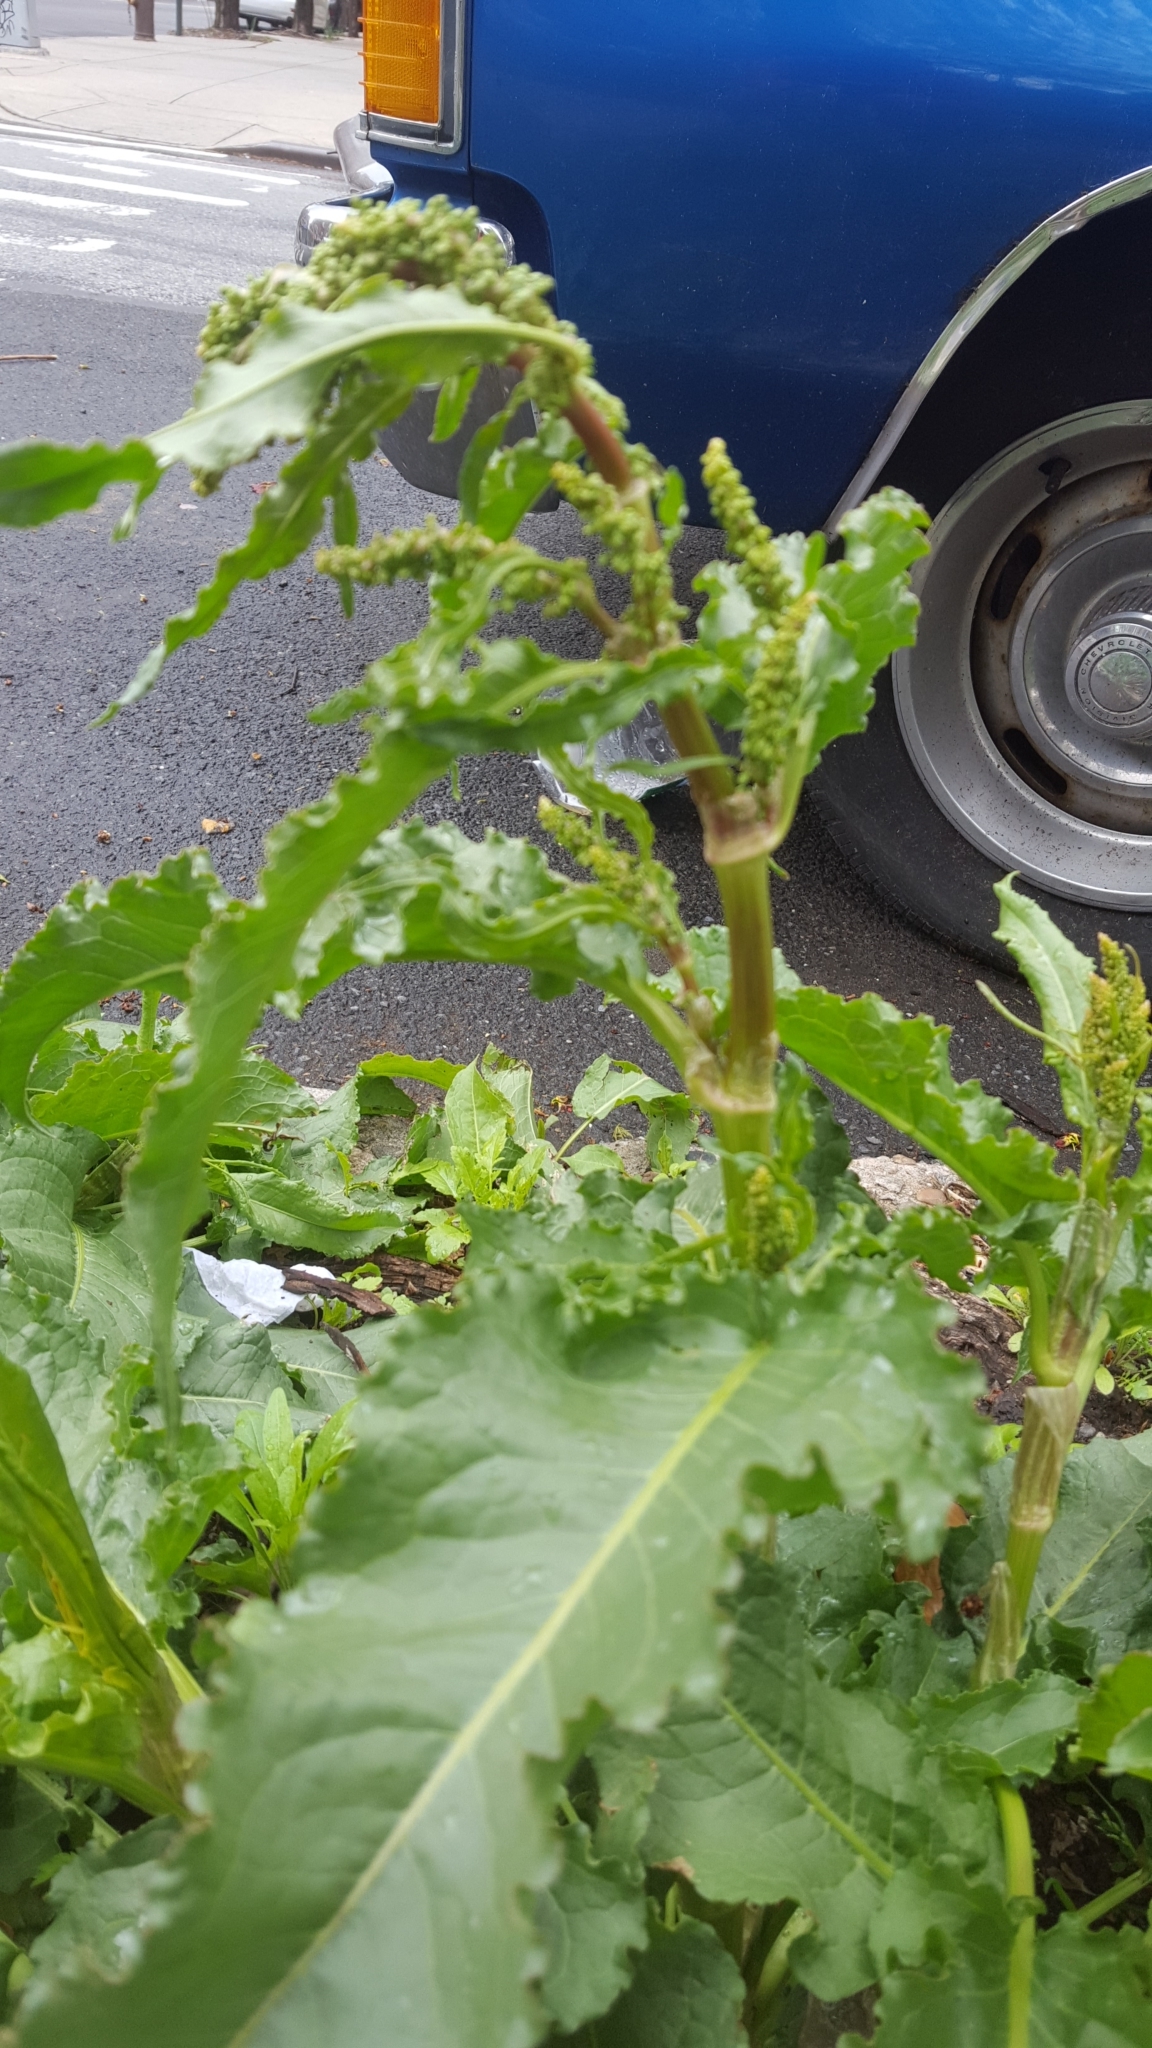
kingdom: Plantae
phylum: Tracheophyta
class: Magnoliopsida
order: Caryophyllales
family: Polygonaceae
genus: Rumex
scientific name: Rumex crispus
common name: Curled dock
